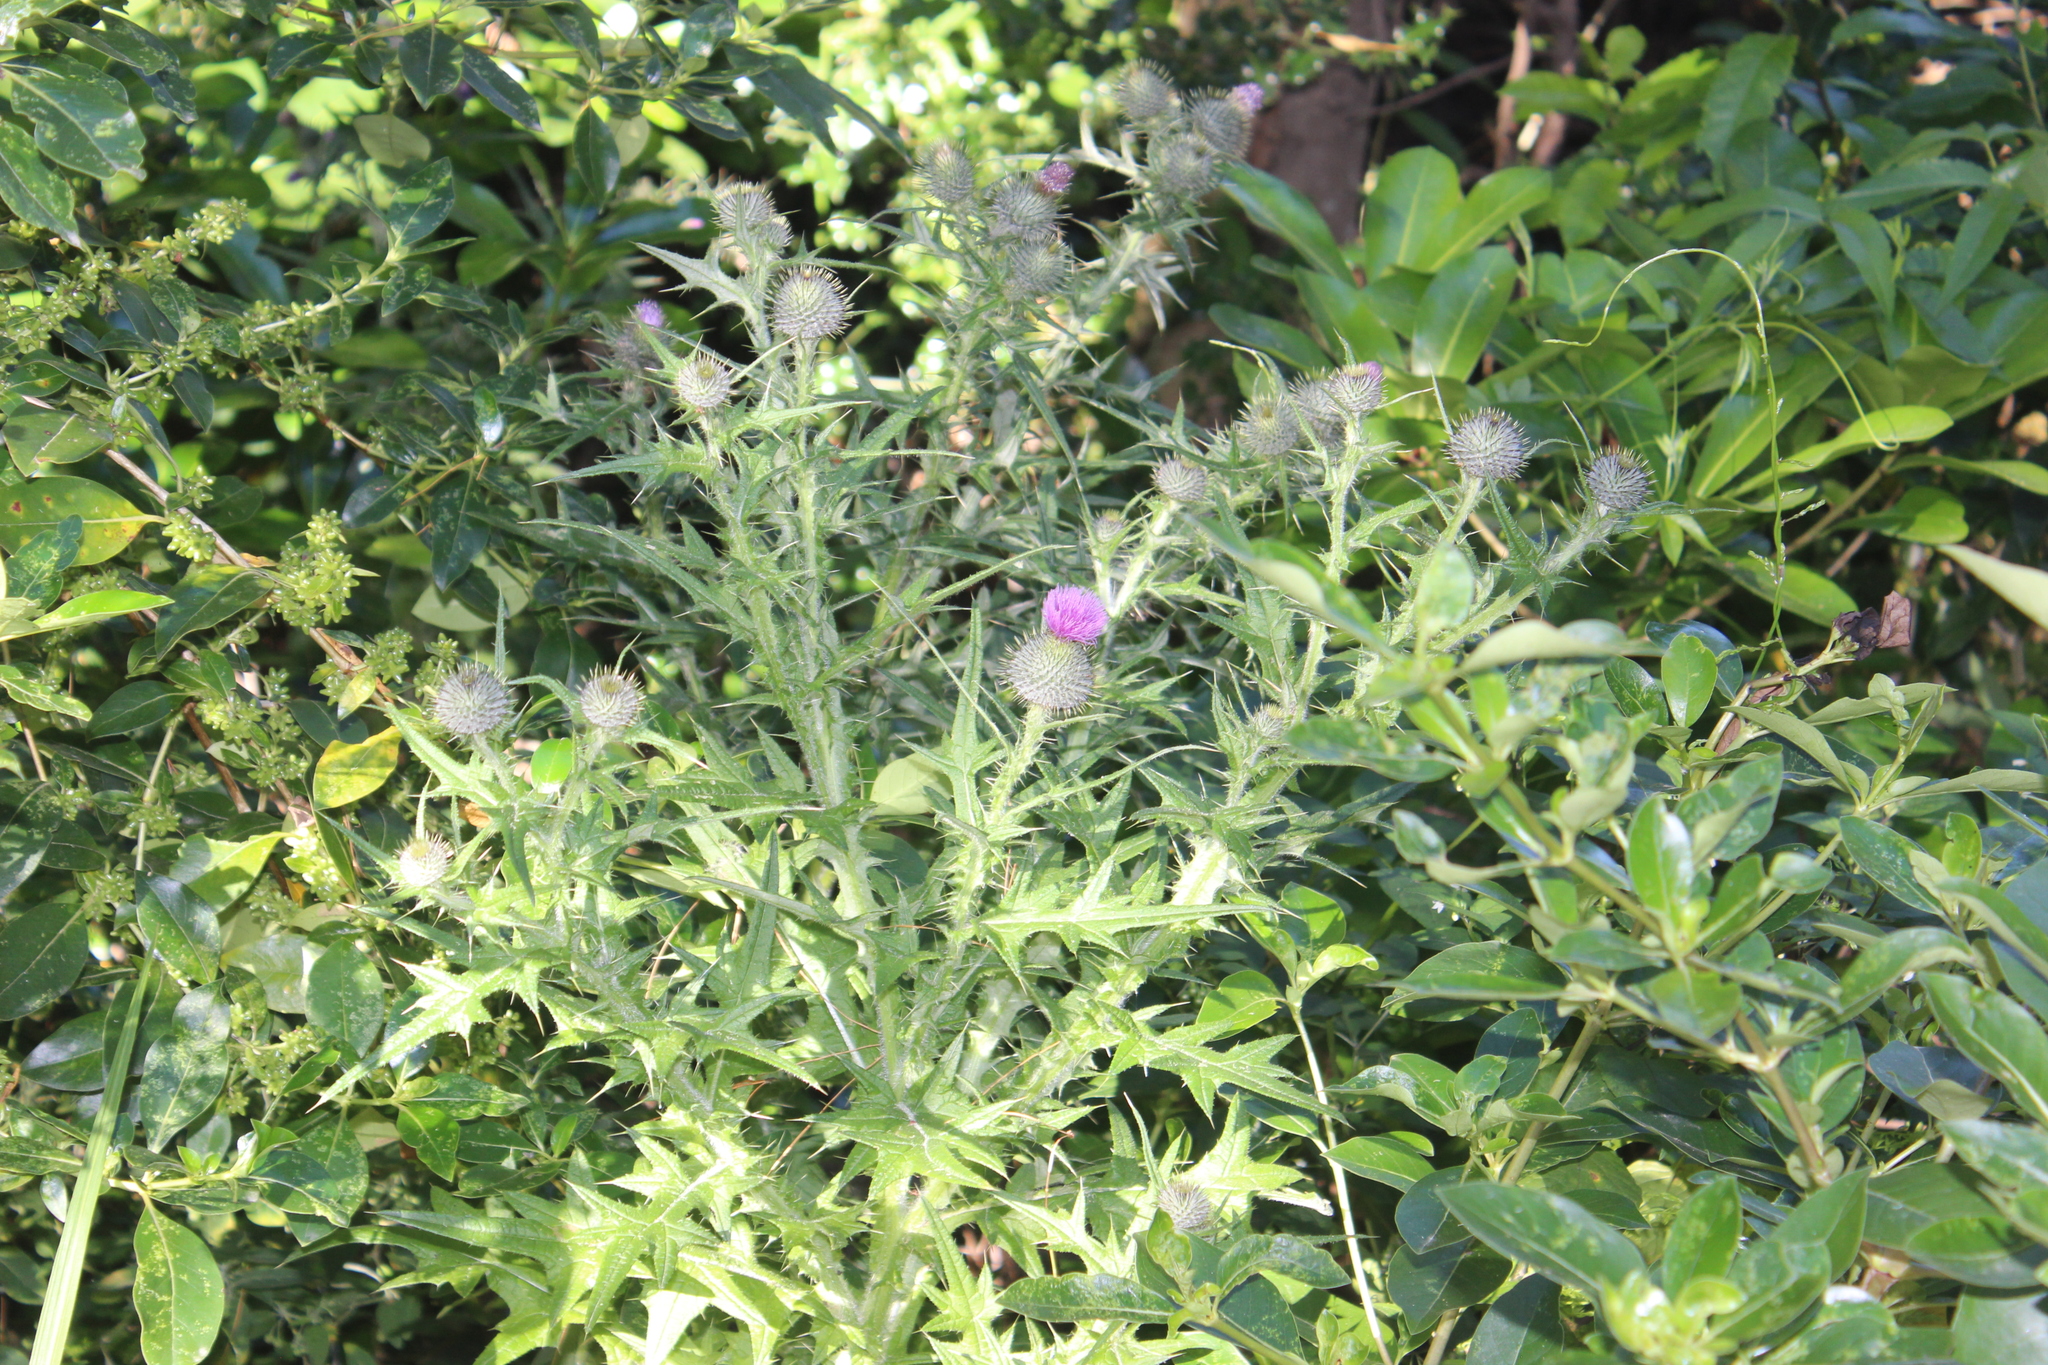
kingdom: Plantae
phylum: Tracheophyta
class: Magnoliopsida
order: Asterales
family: Asteraceae
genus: Cirsium
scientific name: Cirsium vulgare
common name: Bull thistle
